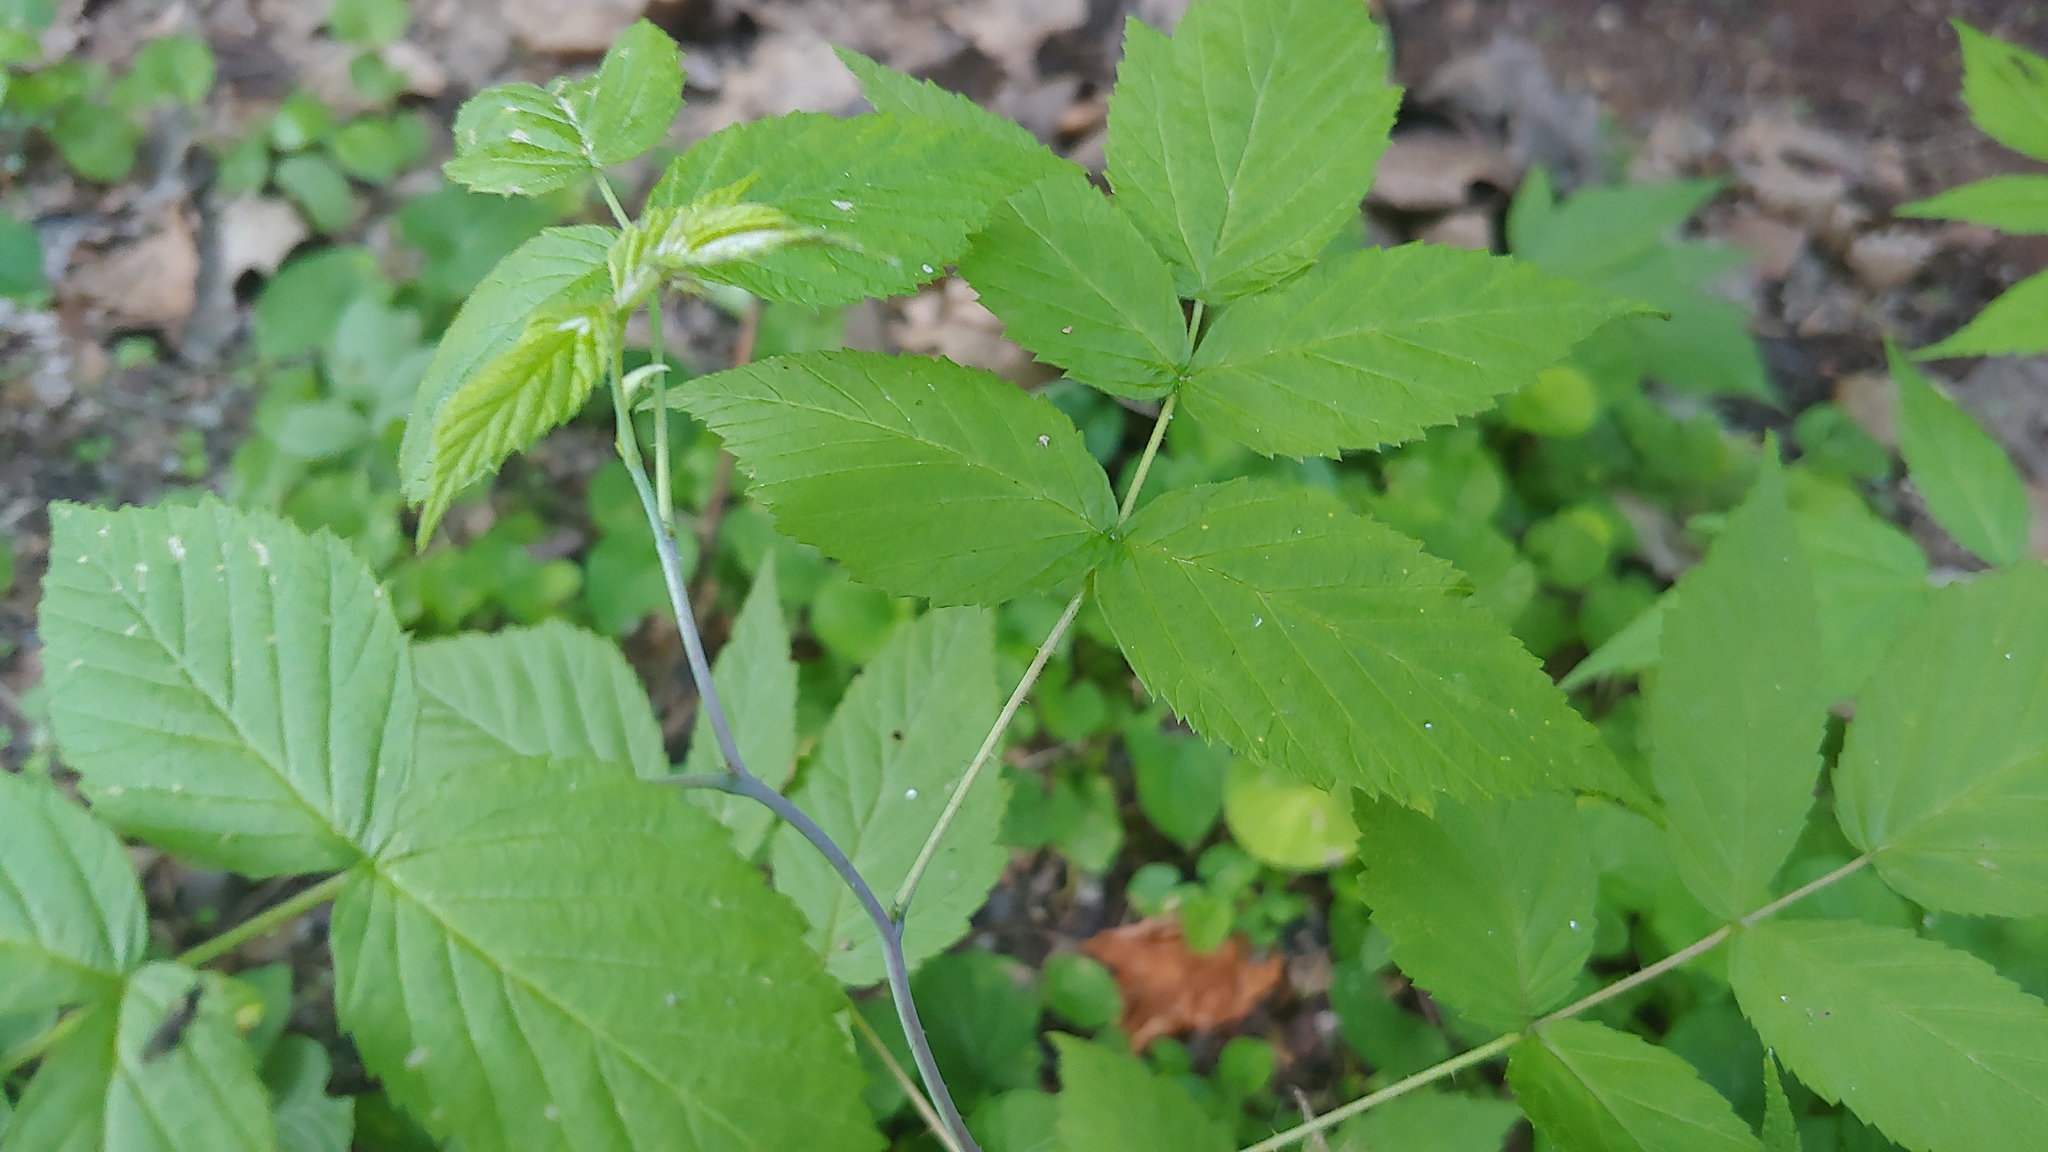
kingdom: Plantae
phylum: Tracheophyta
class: Magnoliopsida
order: Rosales
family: Rosaceae
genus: Rubus
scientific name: Rubus idaeus
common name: Raspberry
